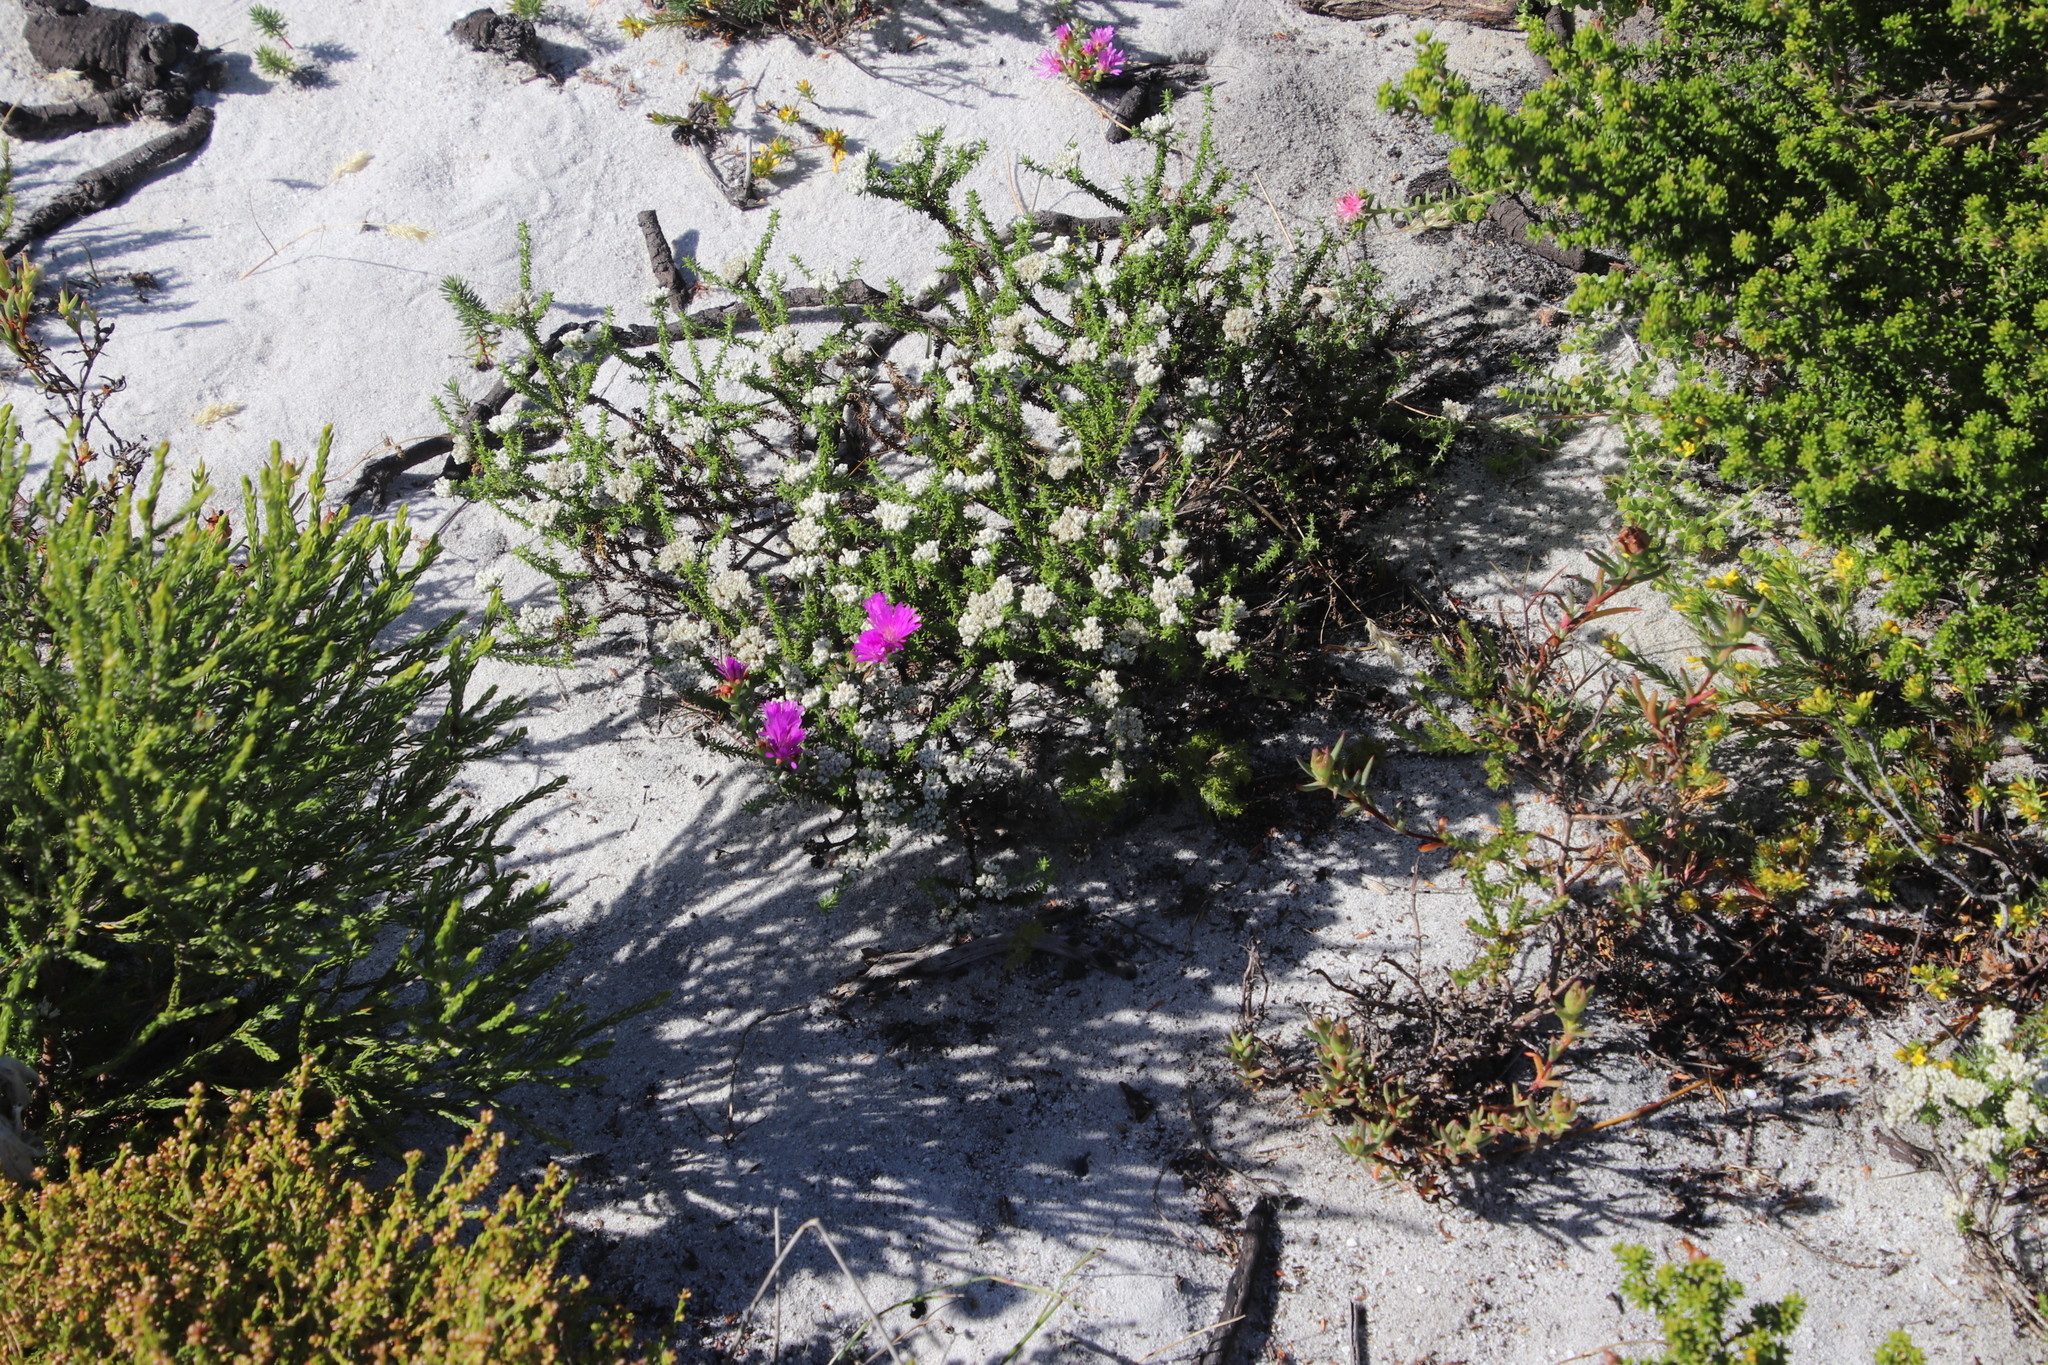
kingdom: Plantae
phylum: Tracheophyta
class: Magnoliopsida
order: Caryophyllales
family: Aizoaceae
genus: Lampranthus
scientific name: Lampranthus glomeratus
